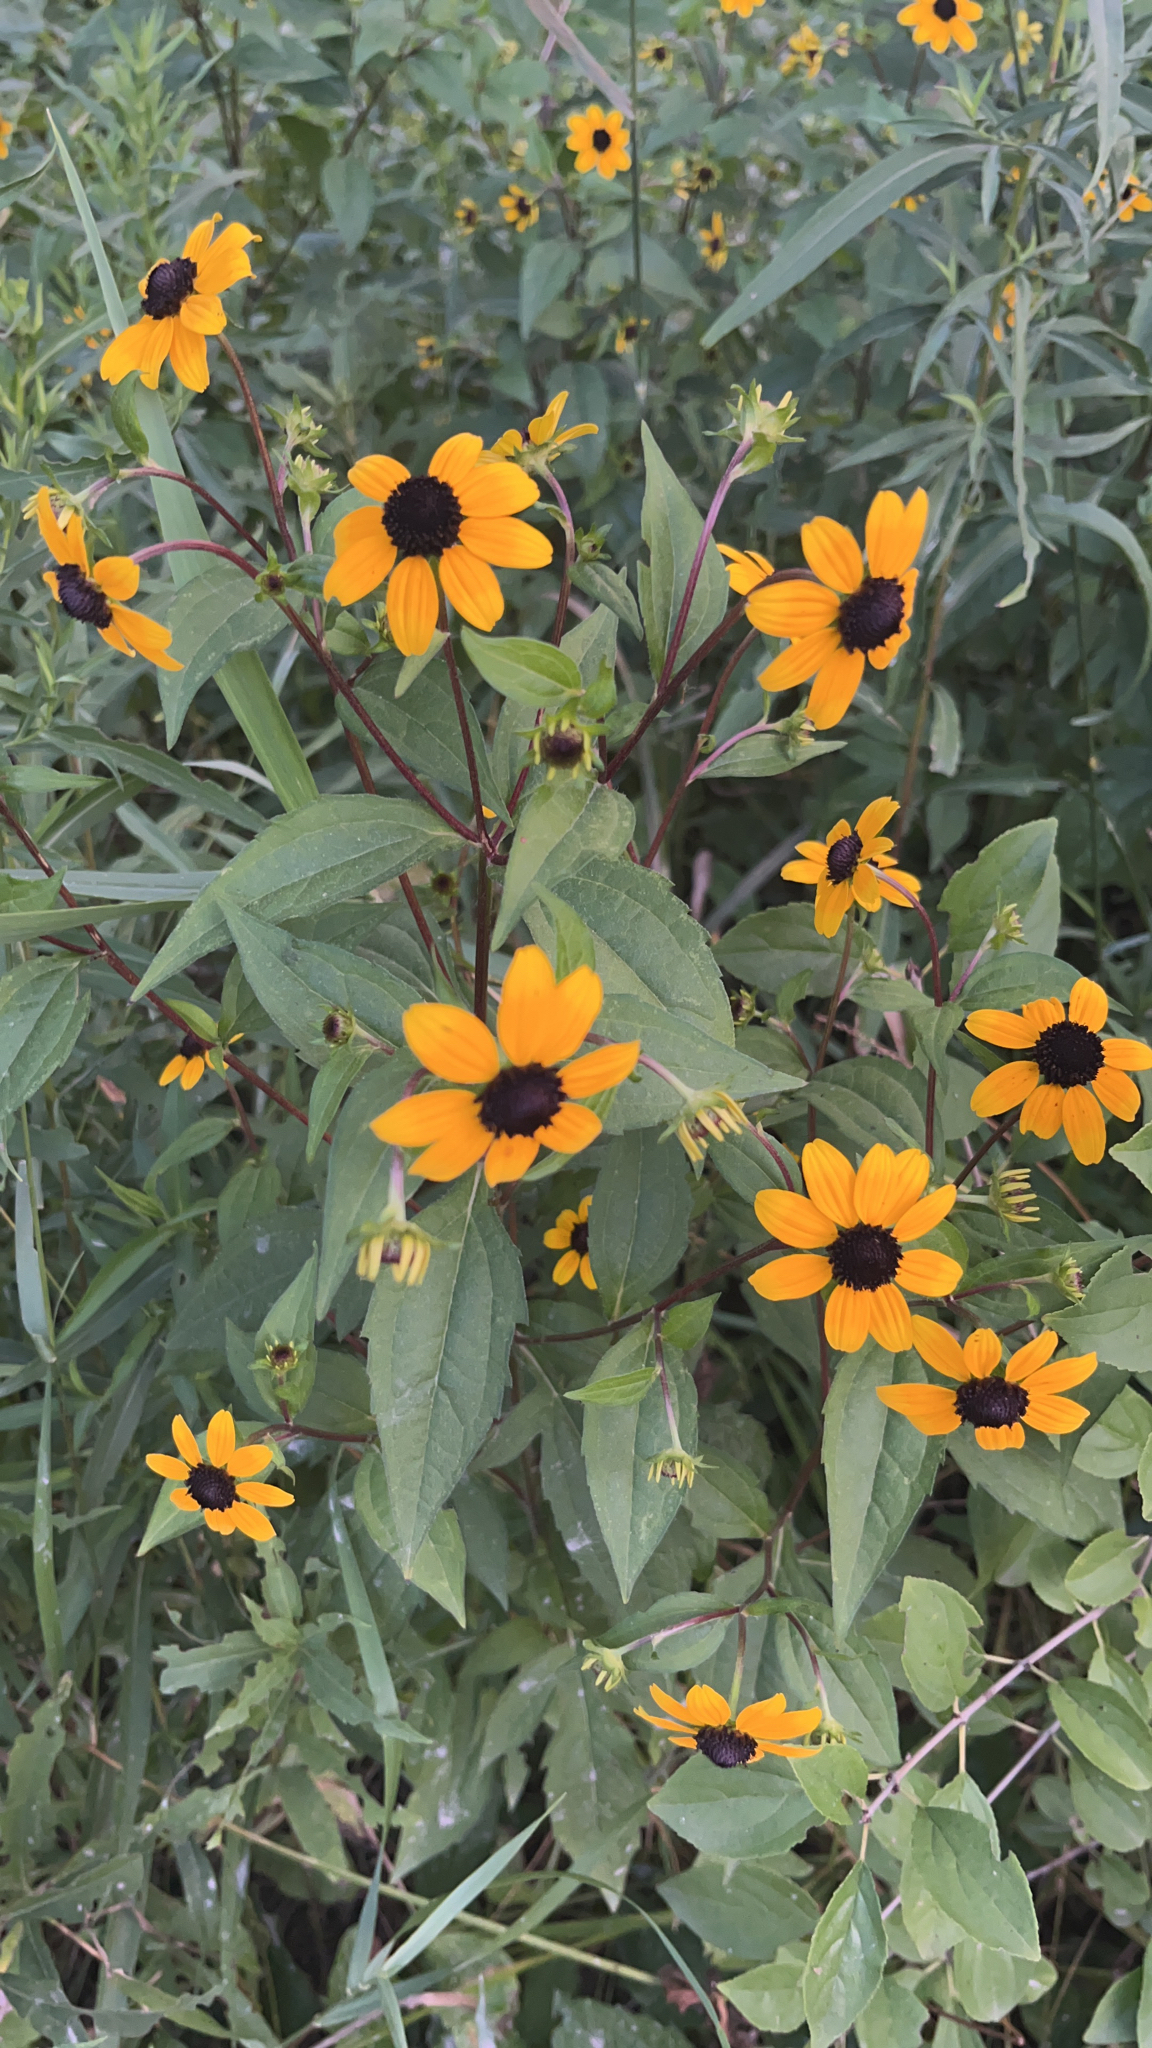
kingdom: Plantae
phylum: Tracheophyta
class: Magnoliopsida
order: Asterales
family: Asteraceae
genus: Rudbeckia
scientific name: Rudbeckia triloba
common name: Thin-leaved coneflower
